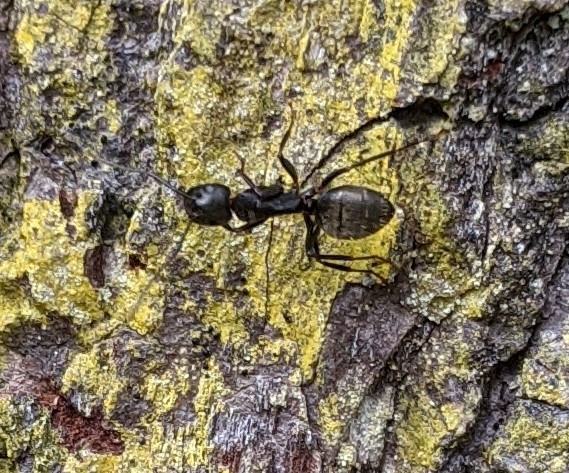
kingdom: Animalia
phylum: Arthropoda
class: Insecta
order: Hymenoptera
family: Formicidae
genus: Camponotus
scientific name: Camponotus pennsylvanicus
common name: Black carpenter ant
